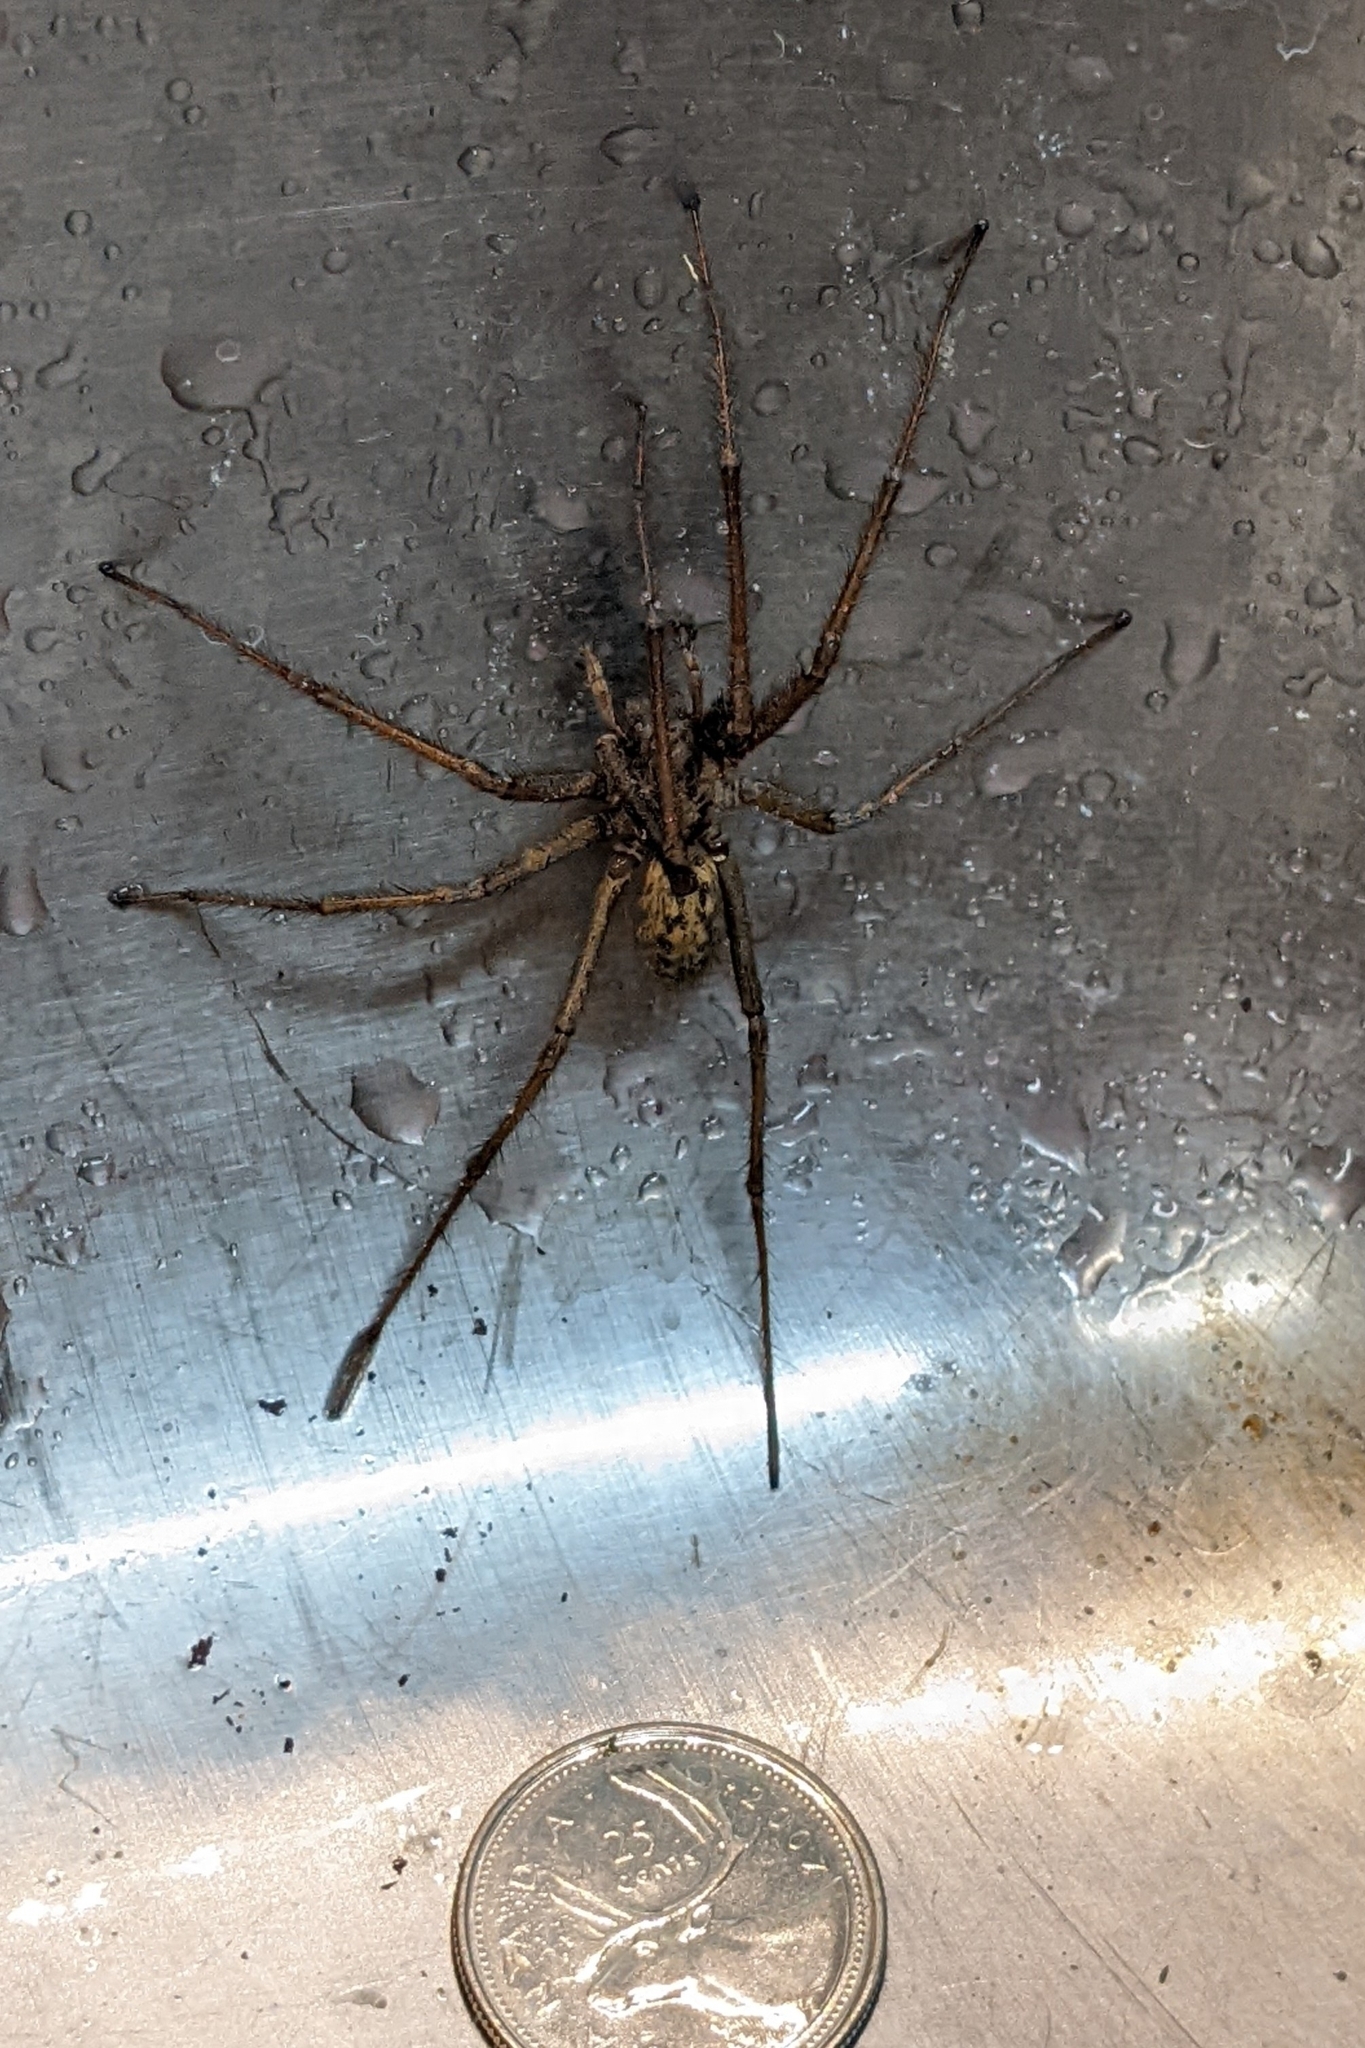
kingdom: Animalia
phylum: Arthropoda
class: Arachnida
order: Araneae
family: Agelenidae
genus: Eratigena
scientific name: Eratigena duellica
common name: Giant house spider
